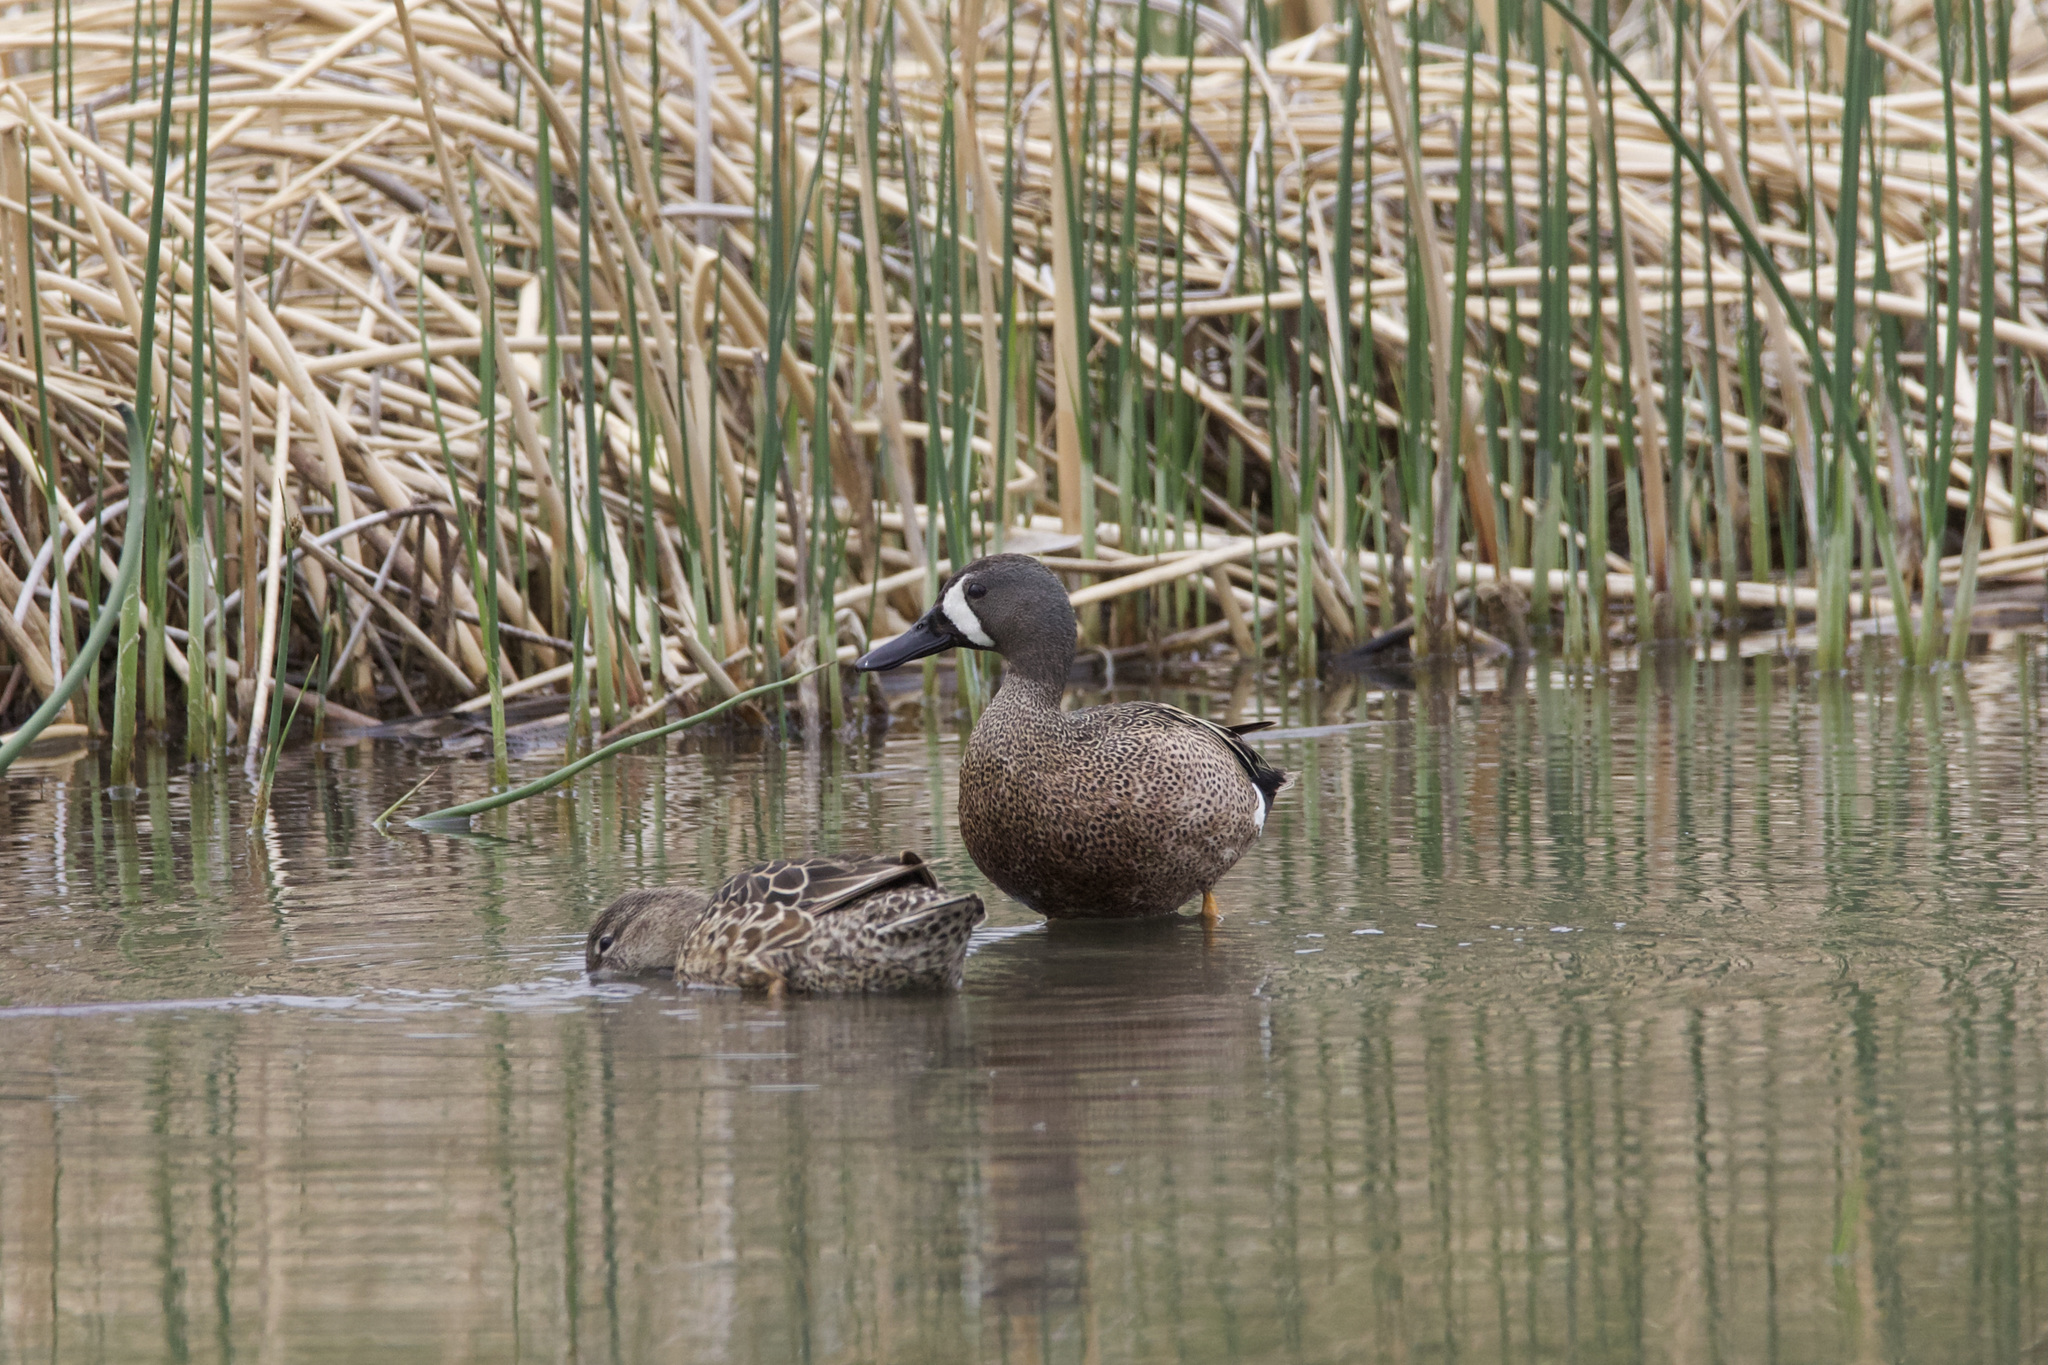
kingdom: Animalia
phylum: Chordata
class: Aves
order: Anseriformes
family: Anatidae
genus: Spatula
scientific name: Spatula discors
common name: Blue-winged teal
